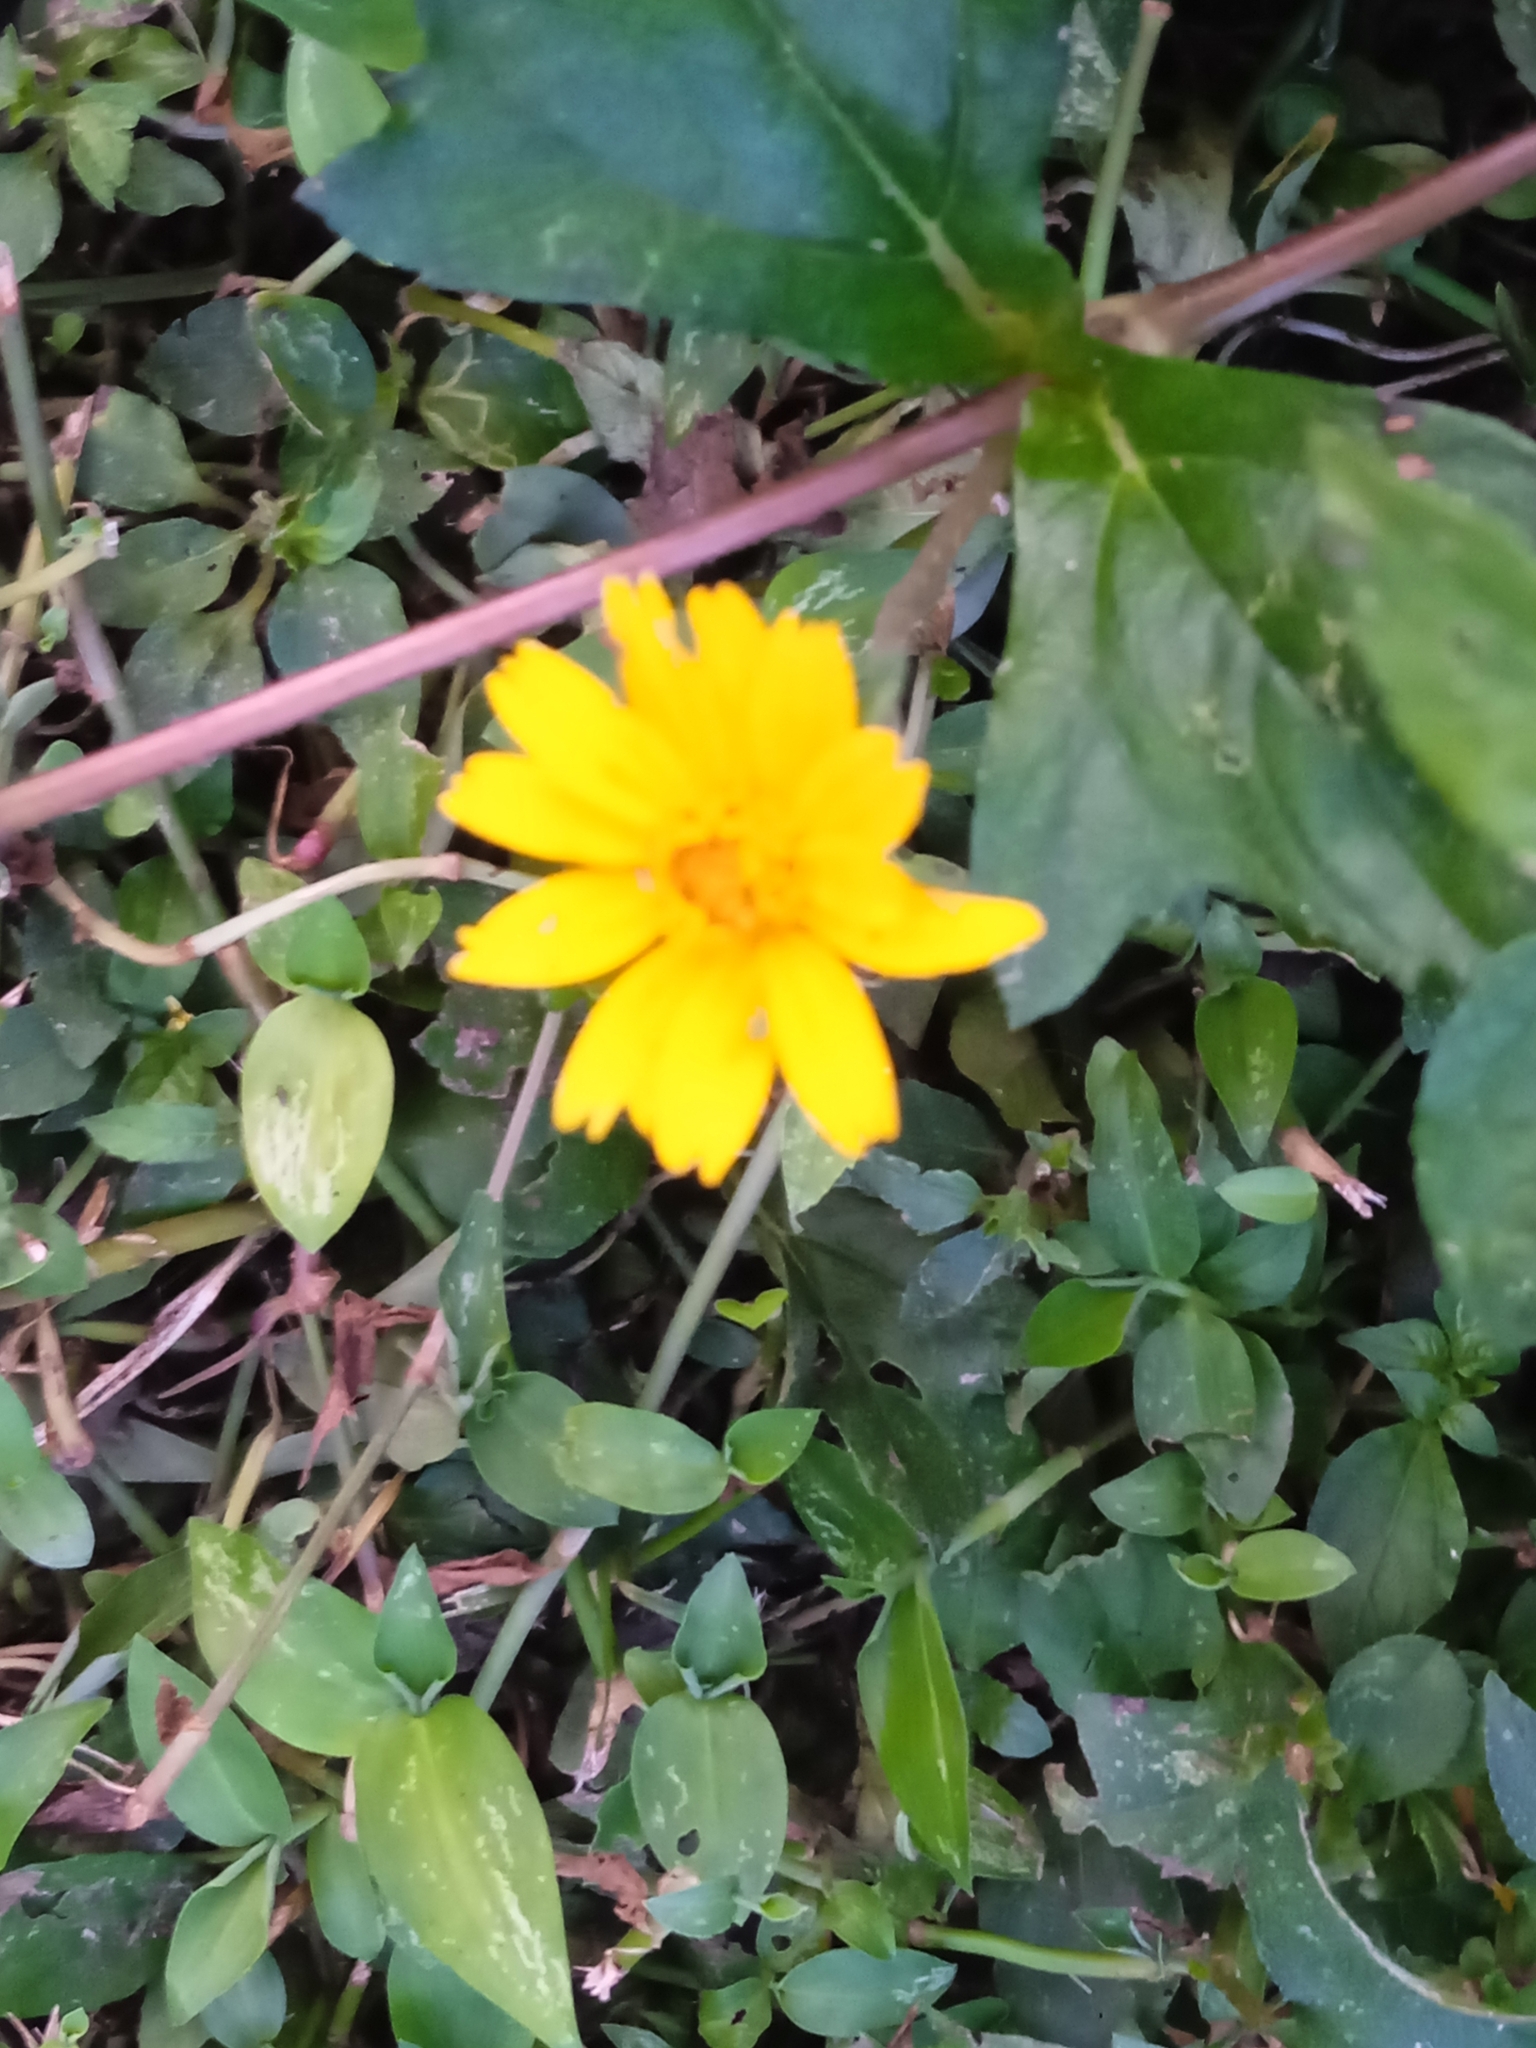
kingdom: Plantae
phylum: Tracheophyta
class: Magnoliopsida
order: Asterales
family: Asteraceae
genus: Sphagneticola
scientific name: Sphagneticola trilobata
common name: Bay biscayne creeping-oxeye
